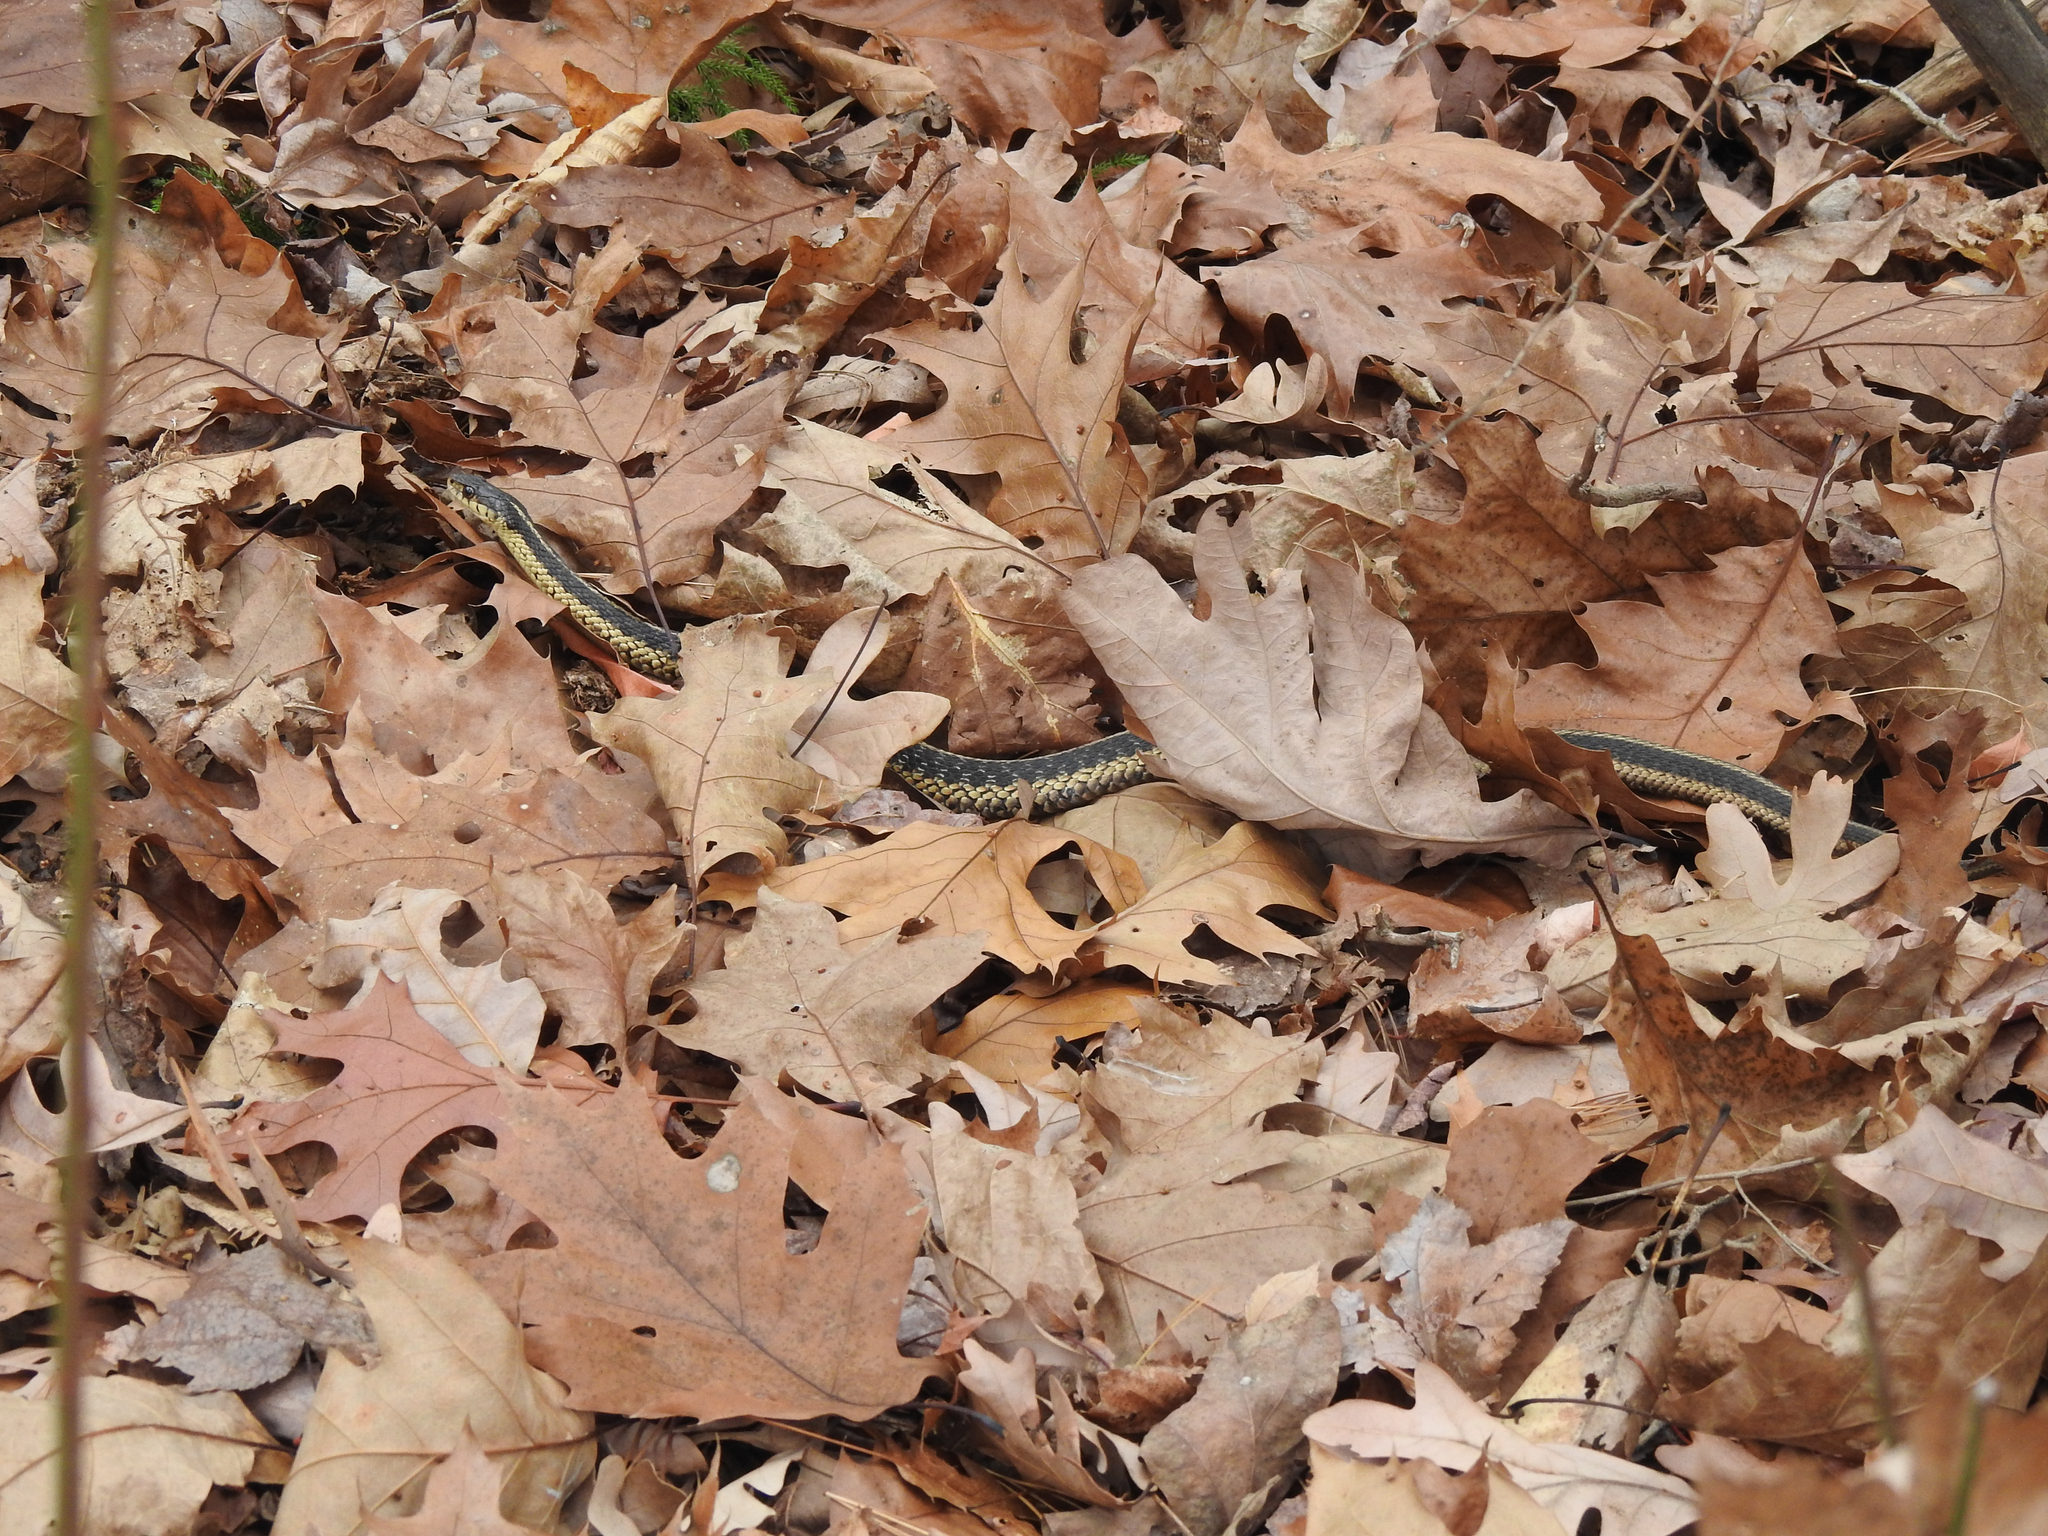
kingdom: Animalia
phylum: Chordata
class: Squamata
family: Colubridae
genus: Thamnophis
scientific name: Thamnophis sirtalis
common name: Common garter snake
